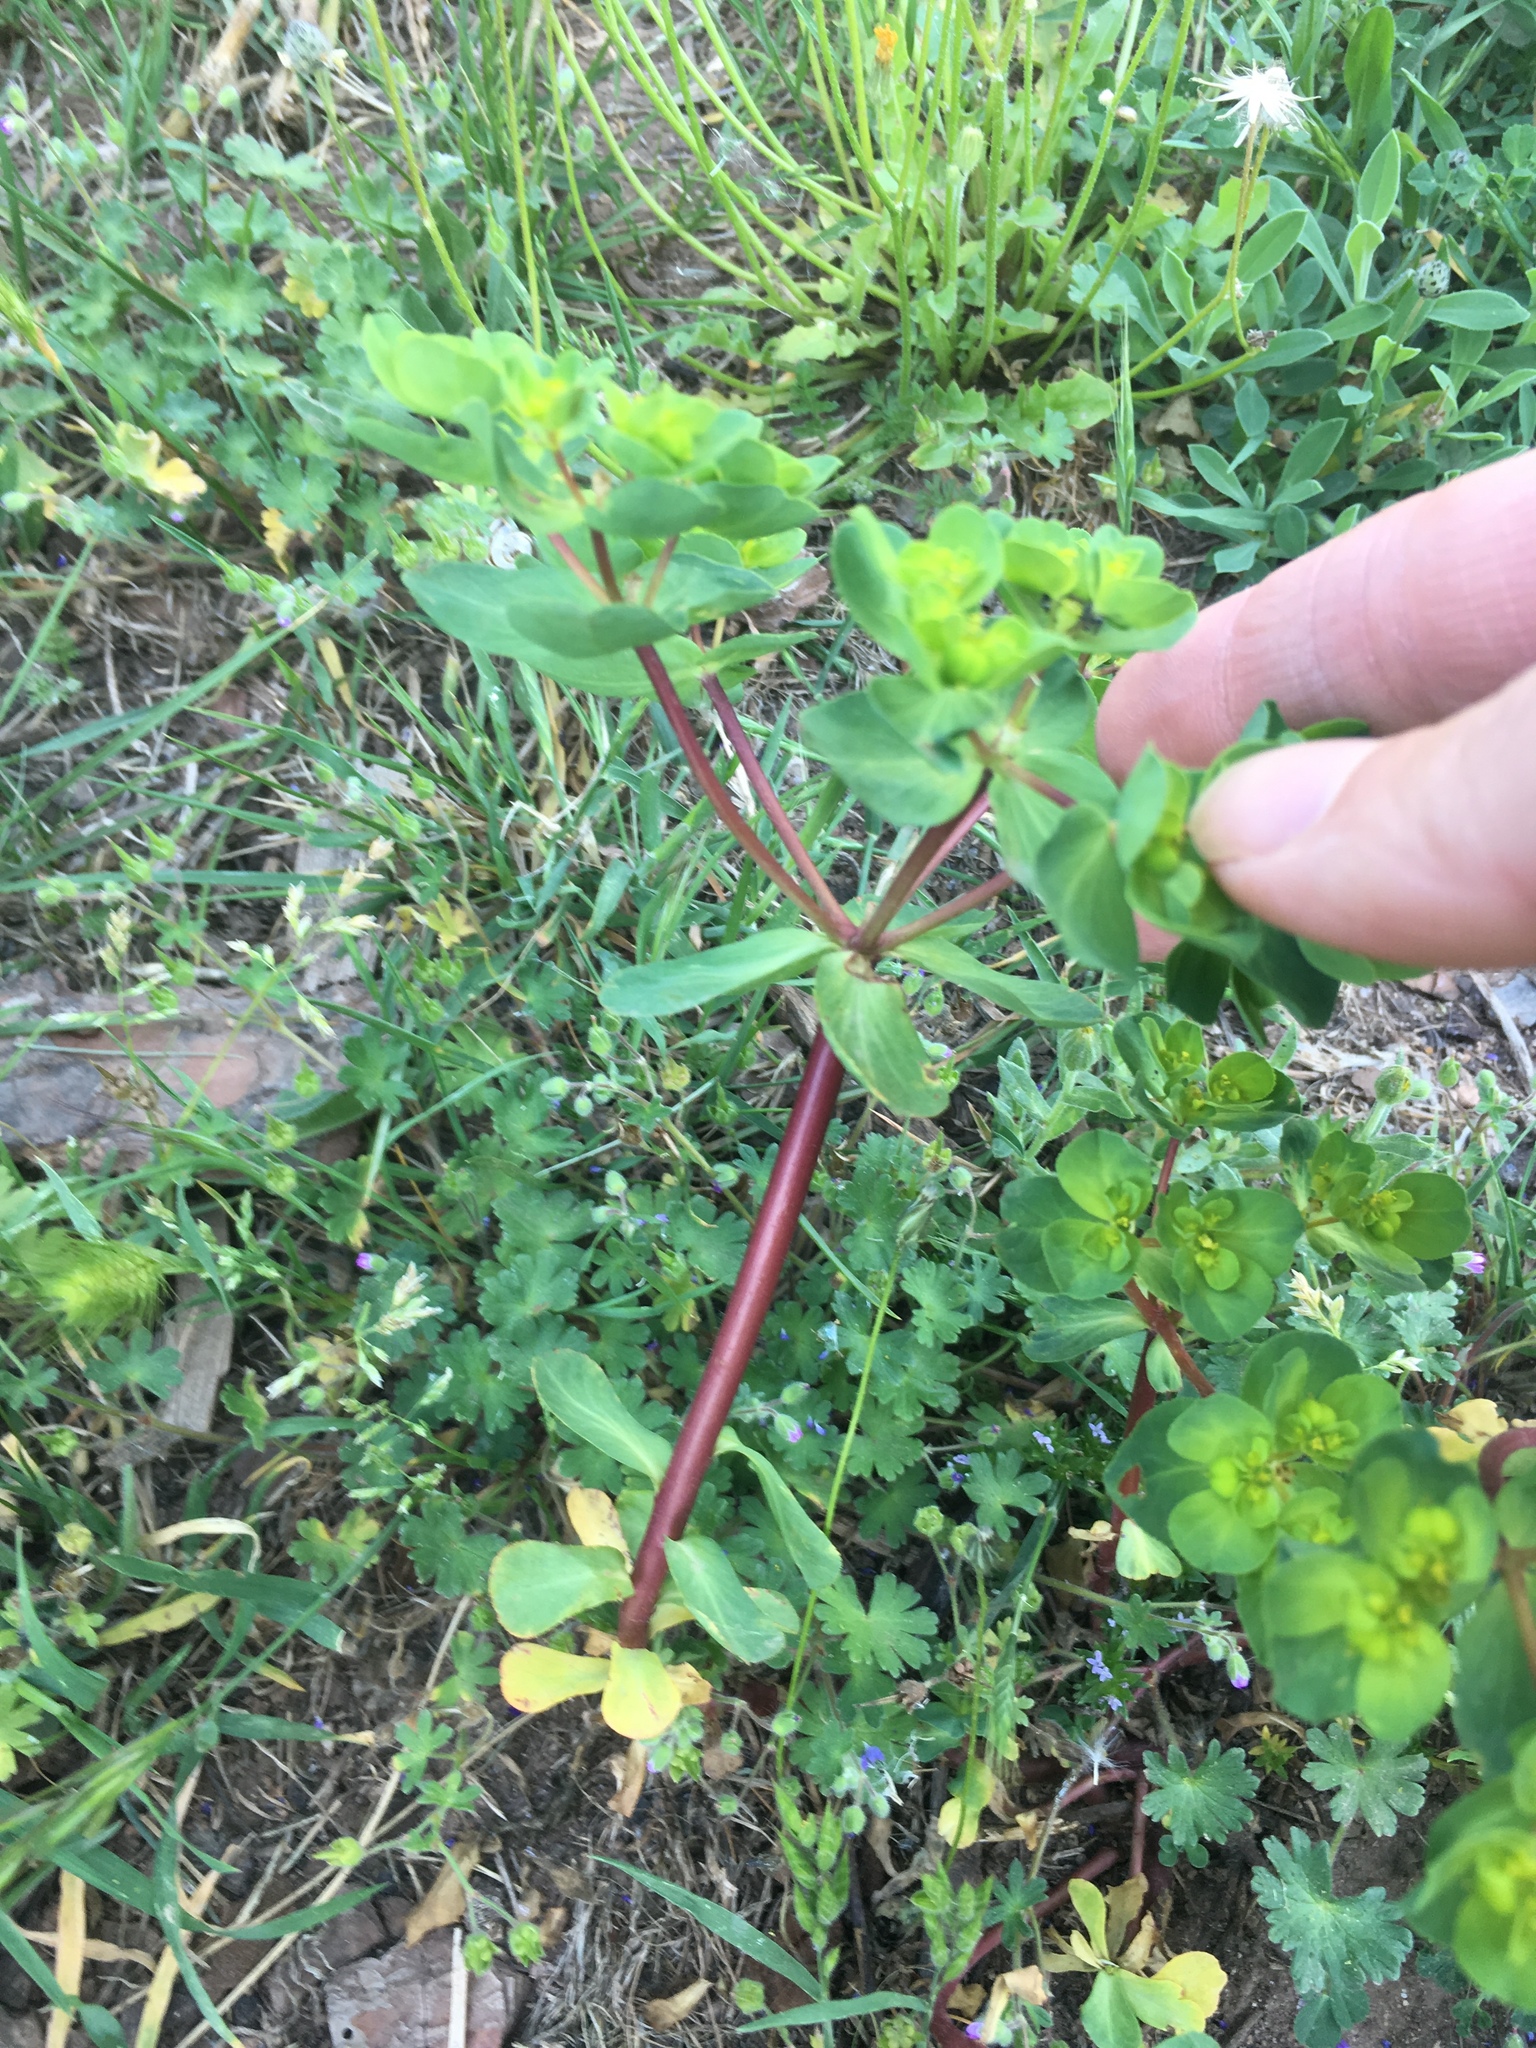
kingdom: Plantae
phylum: Tracheophyta
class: Magnoliopsida
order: Malpighiales
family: Euphorbiaceae
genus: Euphorbia
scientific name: Euphorbia helioscopia
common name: Sun spurge
